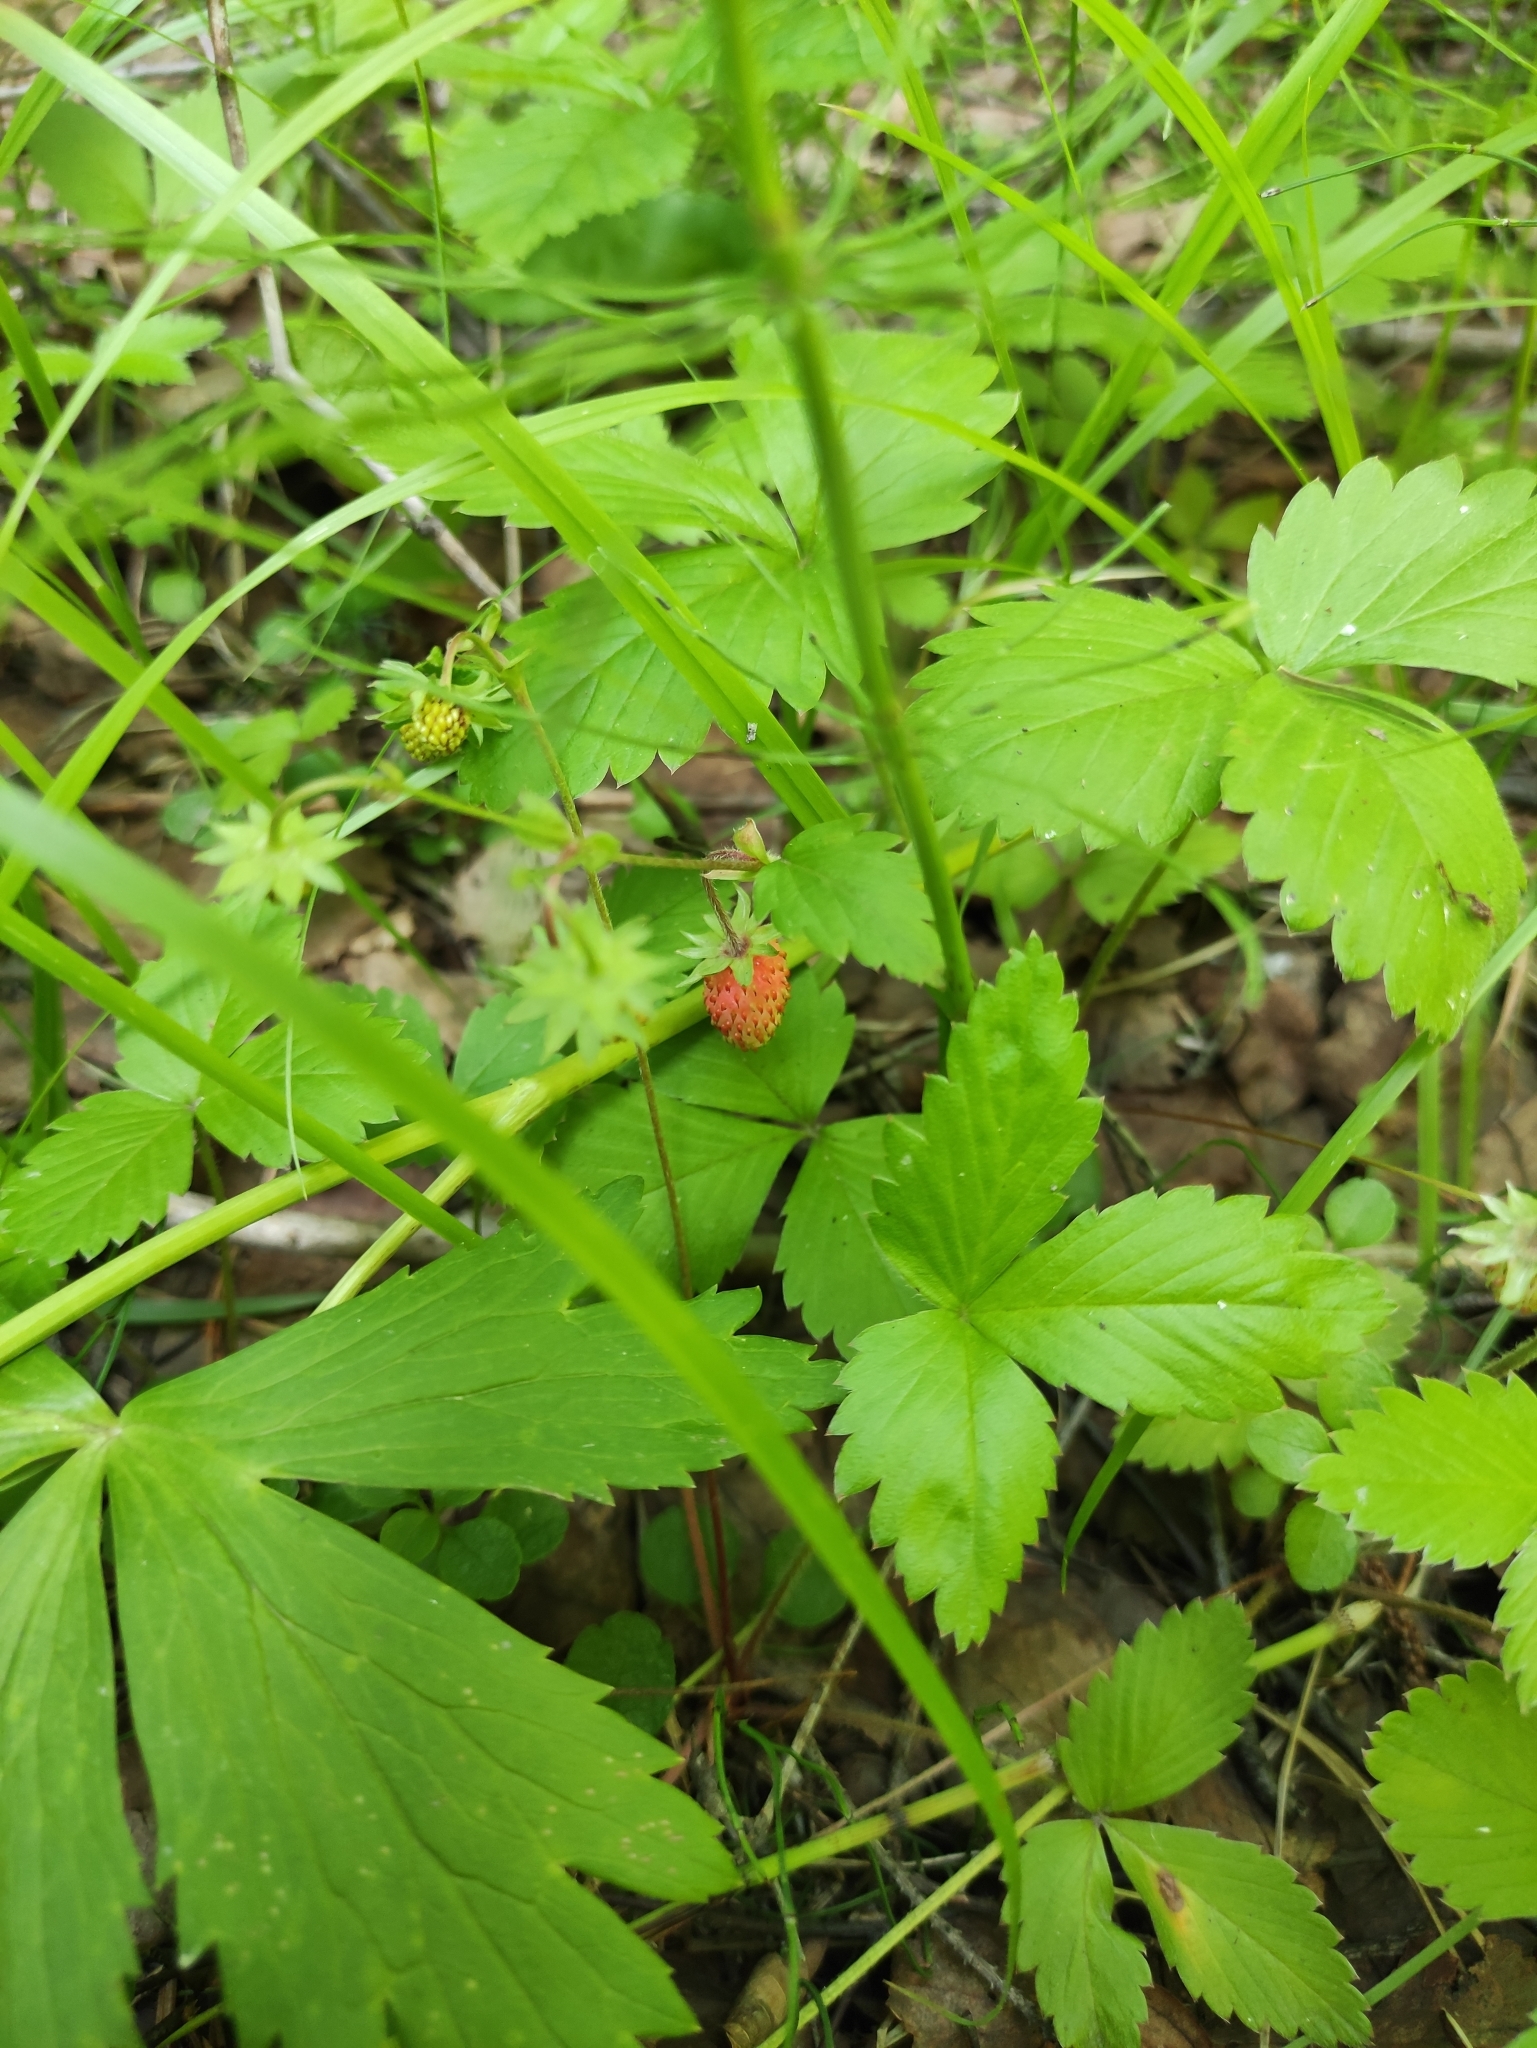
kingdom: Plantae
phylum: Tracheophyta
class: Magnoliopsida
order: Rosales
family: Rosaceae
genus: Fragaria
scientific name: Fragaria vesca
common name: Wild strawberry
